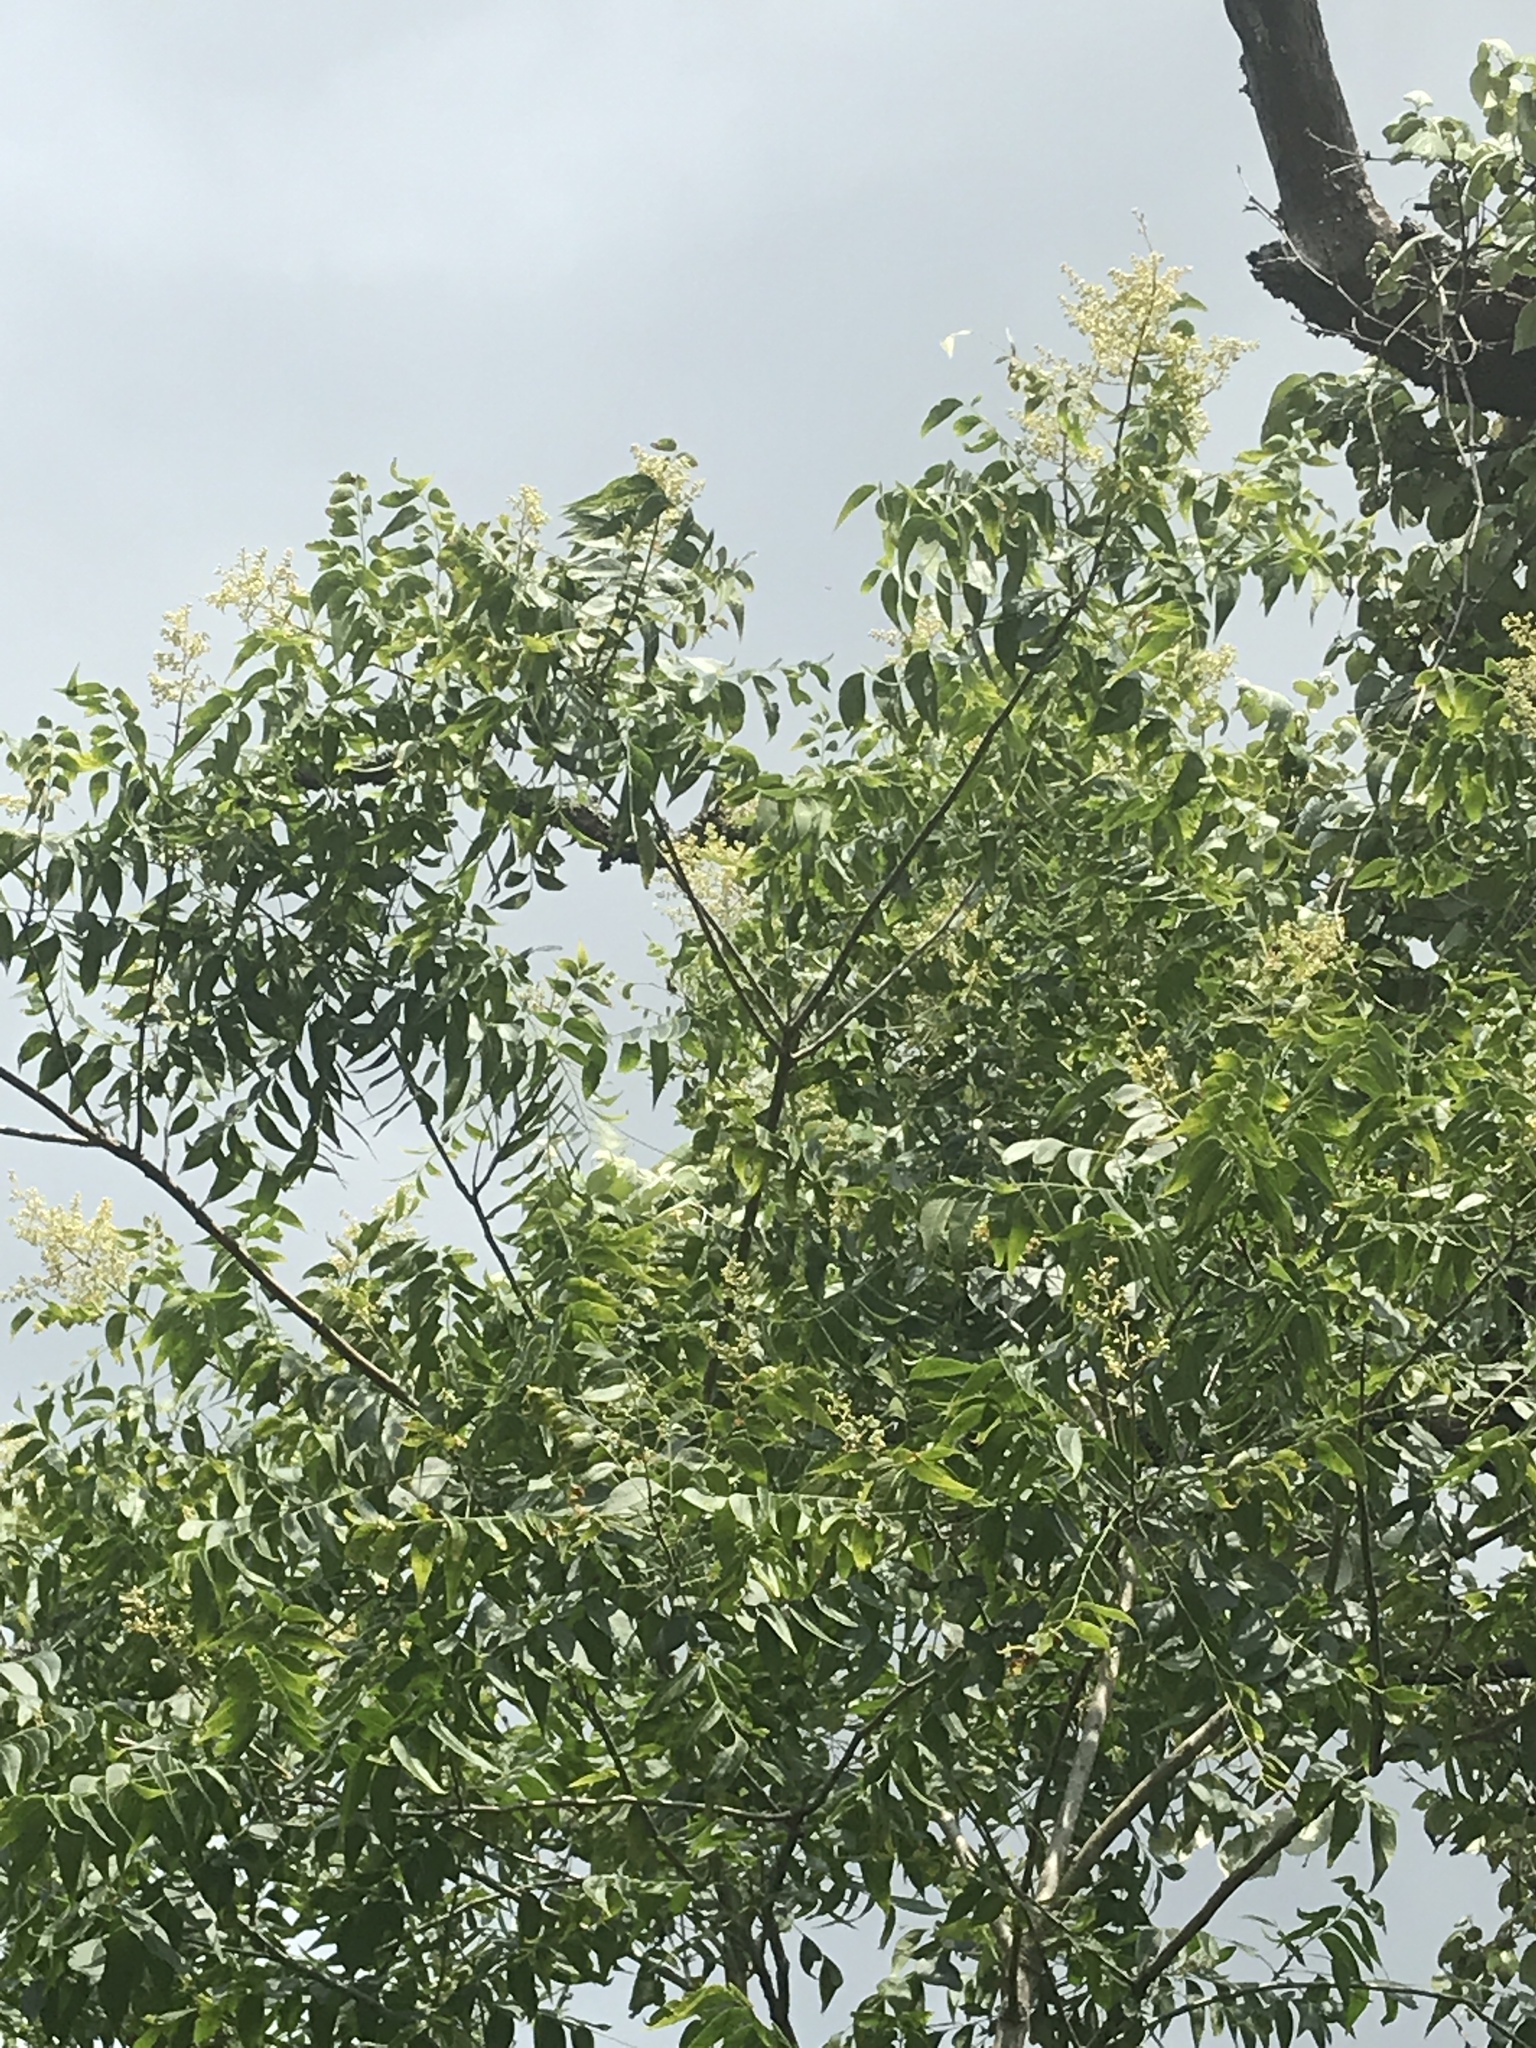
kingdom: Plantae
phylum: Tracheophyta
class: Magnoliopsida
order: Sapindales
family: Sapindaceae
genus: Sapindus
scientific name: Sapindus drummondii
